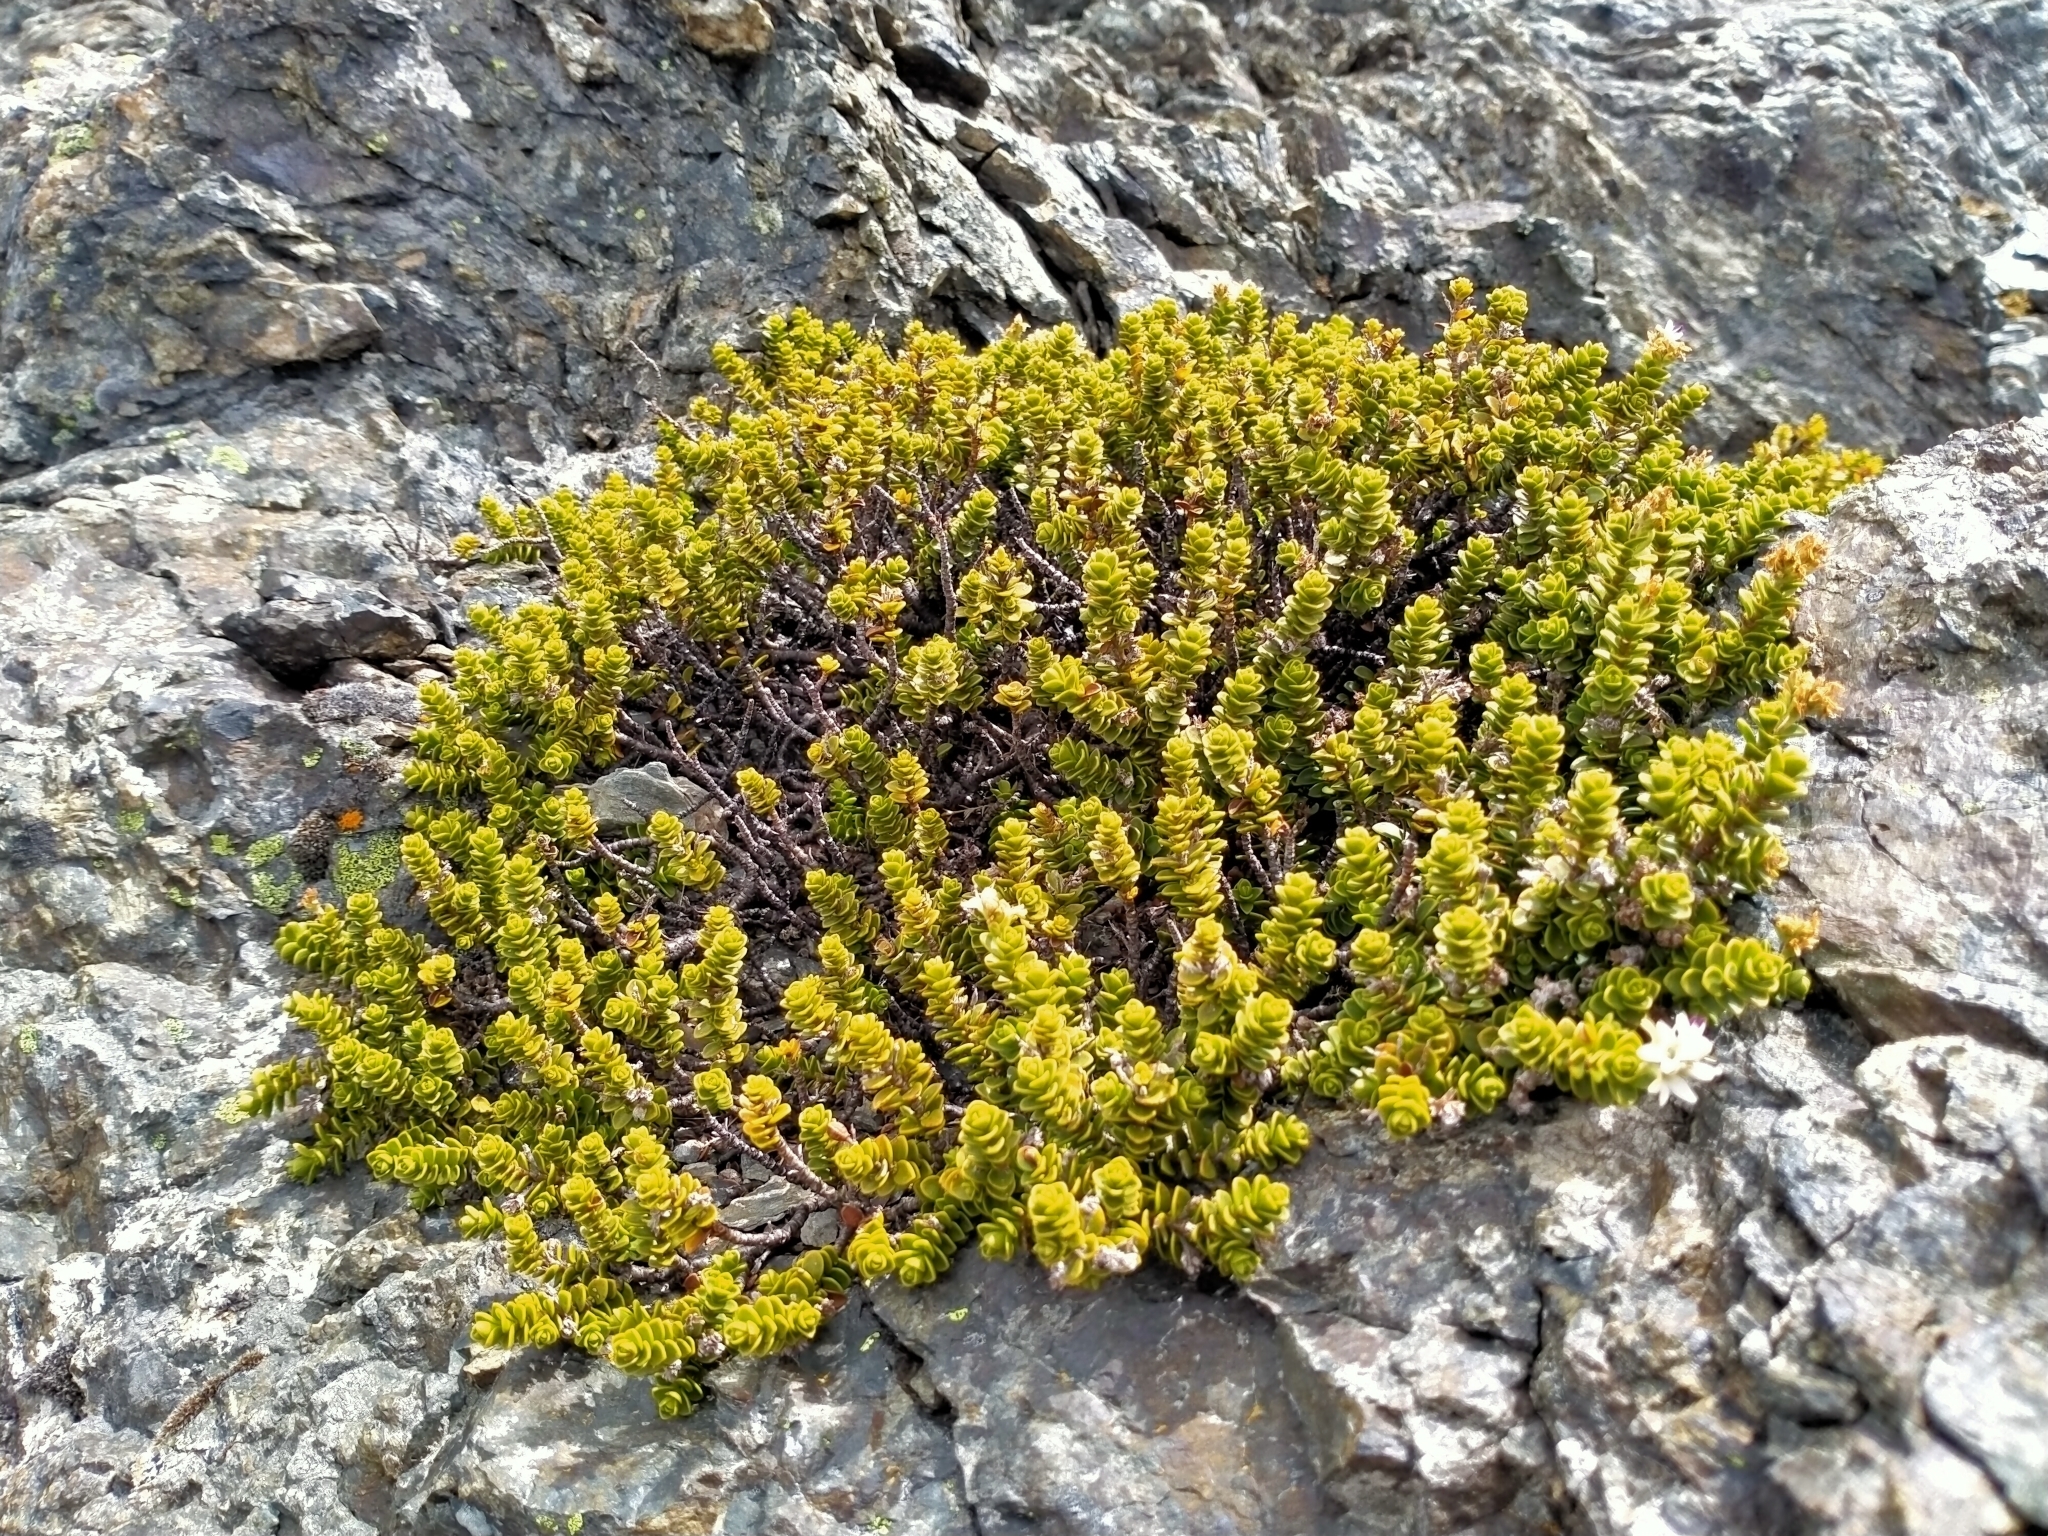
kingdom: Plantae
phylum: Tracheophyta
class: Magnoliopsida
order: Lamiales
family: Plantaginaceae
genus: Veronica
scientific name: Veronica buchananii
